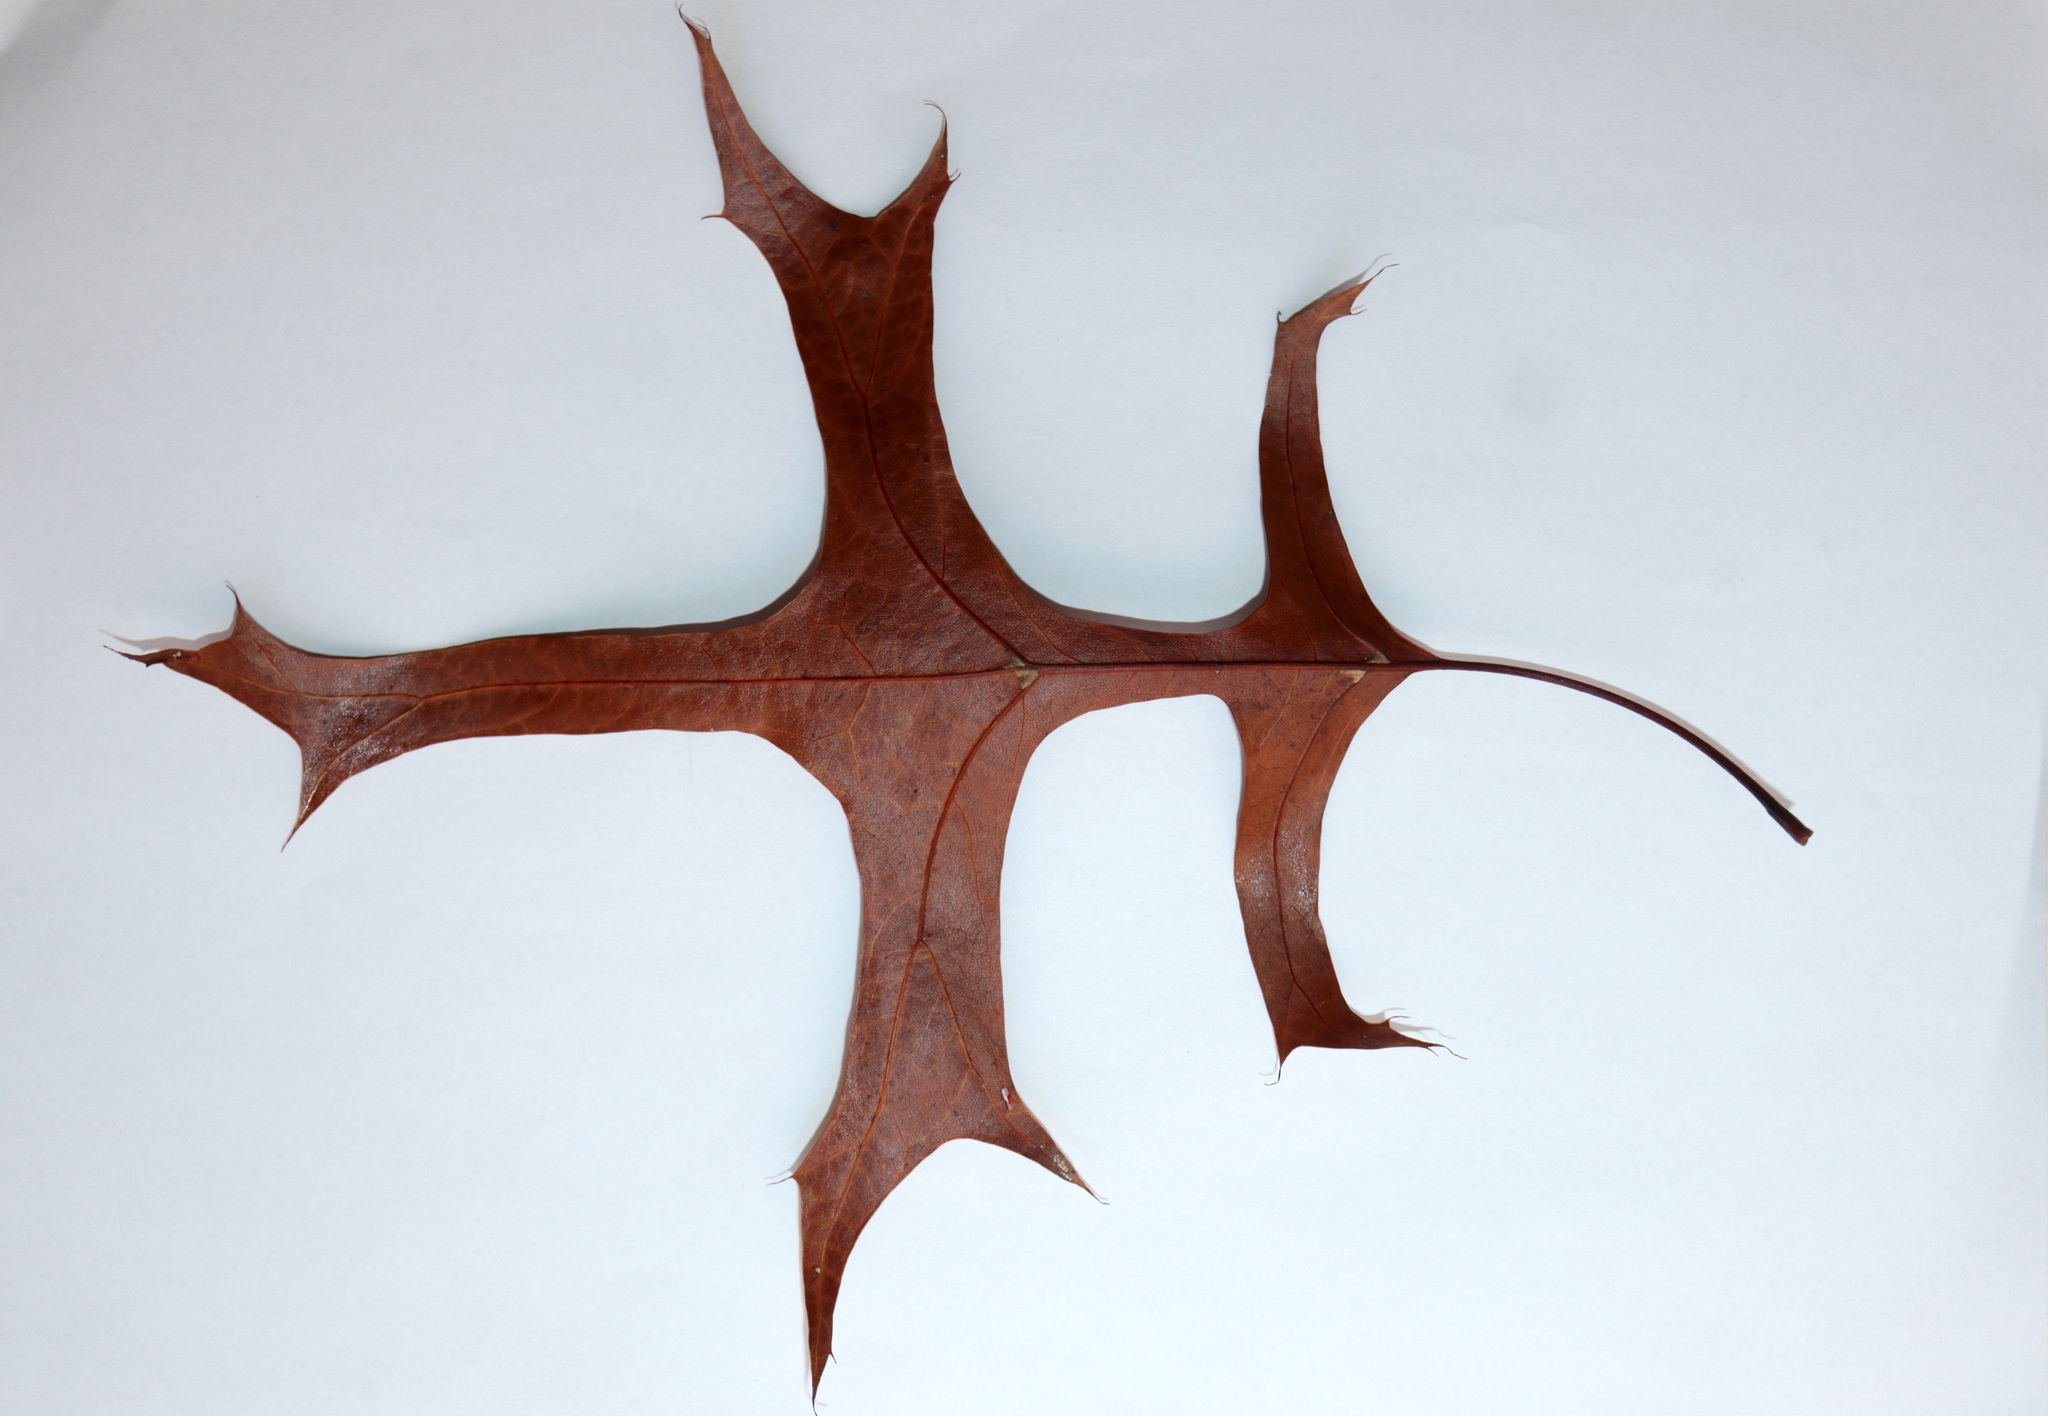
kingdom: Plantae
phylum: Tracheophyta
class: Magnoliopsida
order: Fagales
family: Fagaceae
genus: Quercus
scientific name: Quercus palustris
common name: Pin oak
